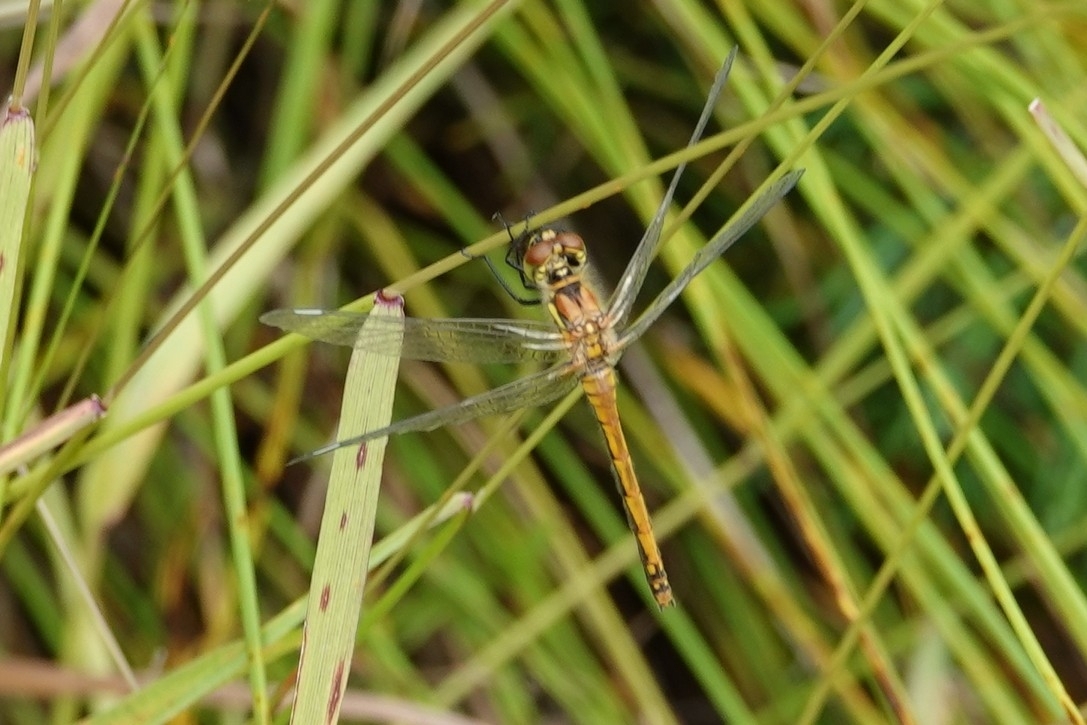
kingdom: Animalia
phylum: Arthropoda
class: Insecta
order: Odonata
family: Libellulidae
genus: Sympetrum
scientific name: Sympetrum danae
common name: Black darter
